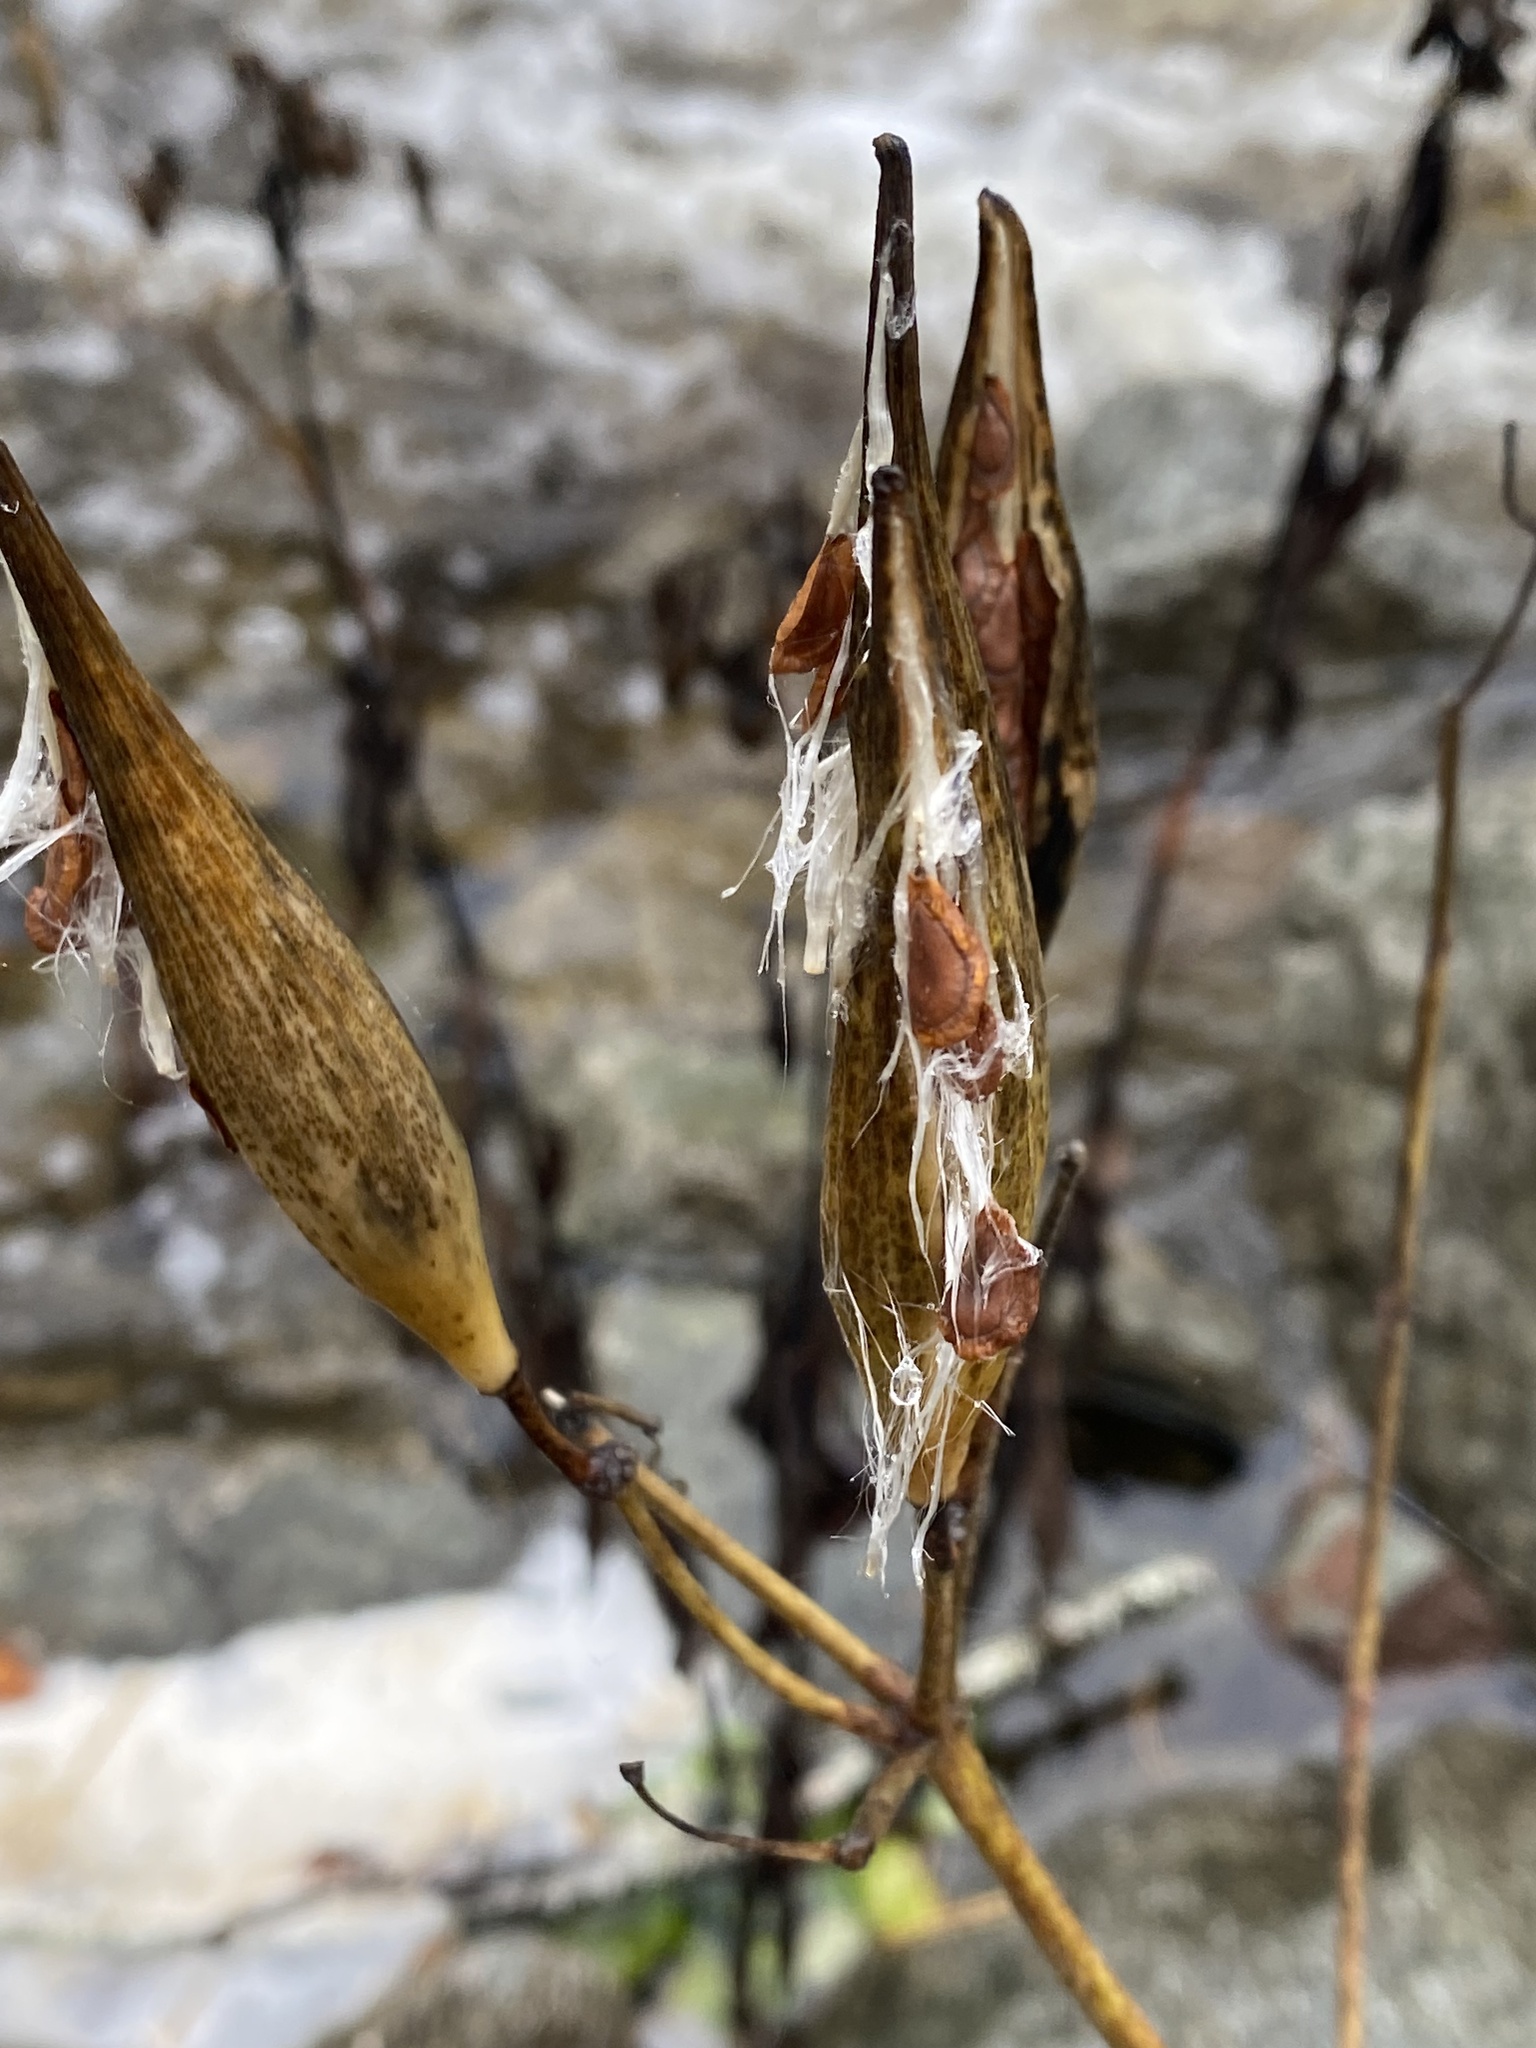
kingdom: Plantae
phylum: Tracheophyta
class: Magnoliopsida
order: Gentianales
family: Apocynaceae
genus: Asclepias
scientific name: Asclepias incarnata
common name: Swamp milkweed
